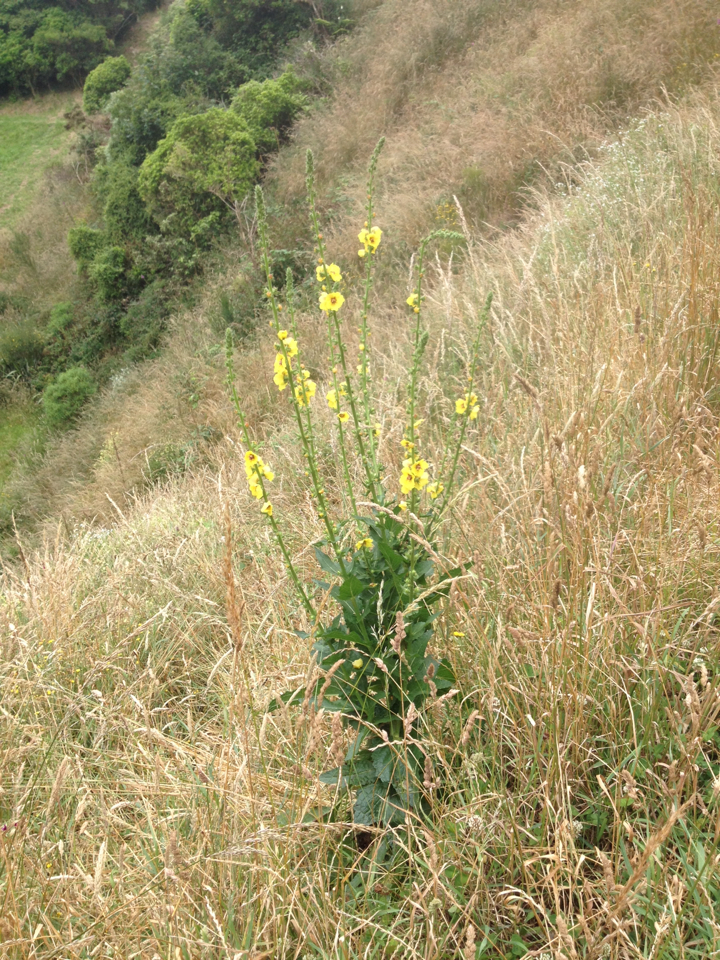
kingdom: Plantae
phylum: Tracheophyta
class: Magnoliopsida
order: Lamiales
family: Scrophulariaceae
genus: Verbascum
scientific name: Verbascum virgatum
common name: Twiggy mullein
